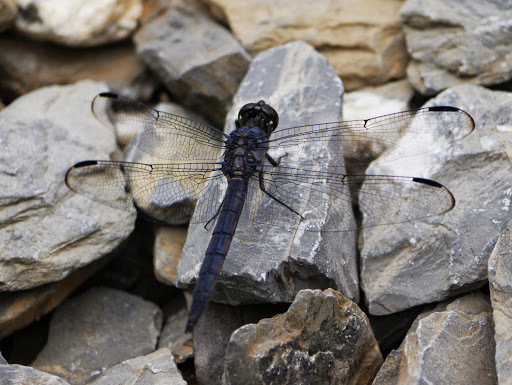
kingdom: Animalia
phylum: Arthropoda
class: Insecta
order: Odonata
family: Libellulidae
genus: Libellula
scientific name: Libellula incesta
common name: Slaty skimmer
